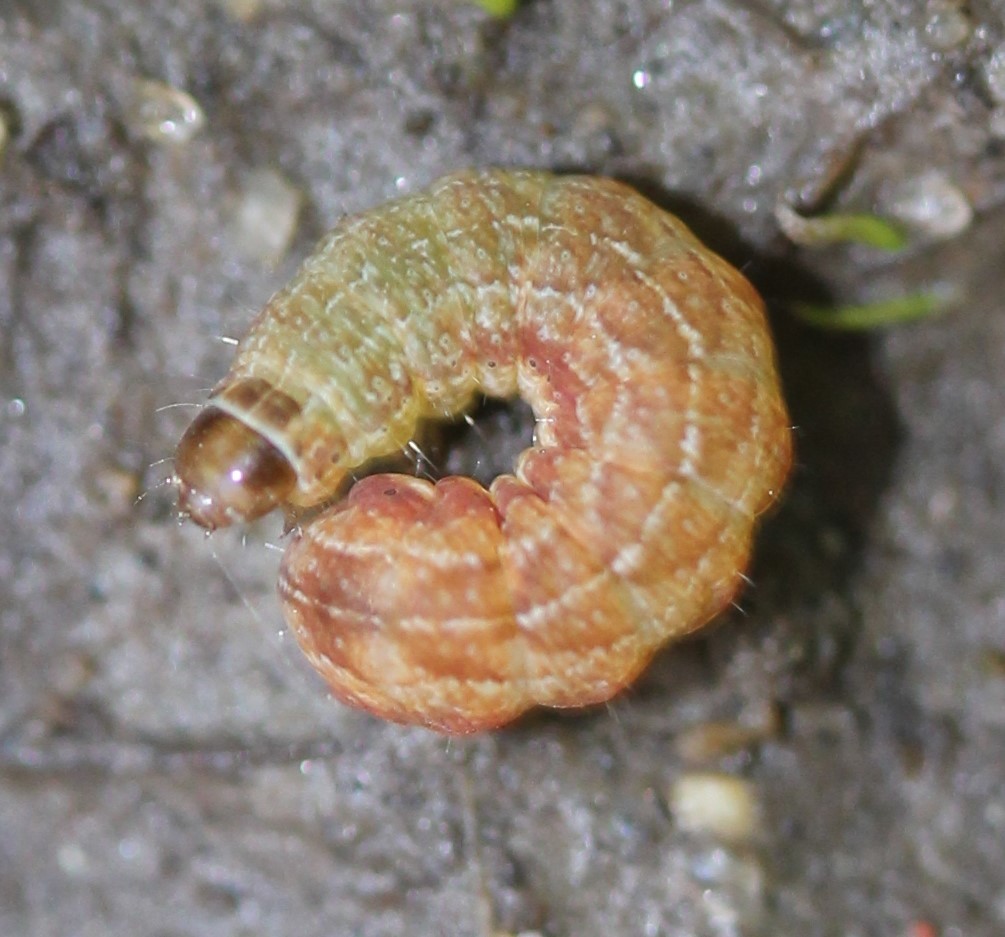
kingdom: Animalia
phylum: Arthropoda
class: Insecta
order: Lepidoptera
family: Noctuidae
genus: Agrochola
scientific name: Agrochola bicolorago
